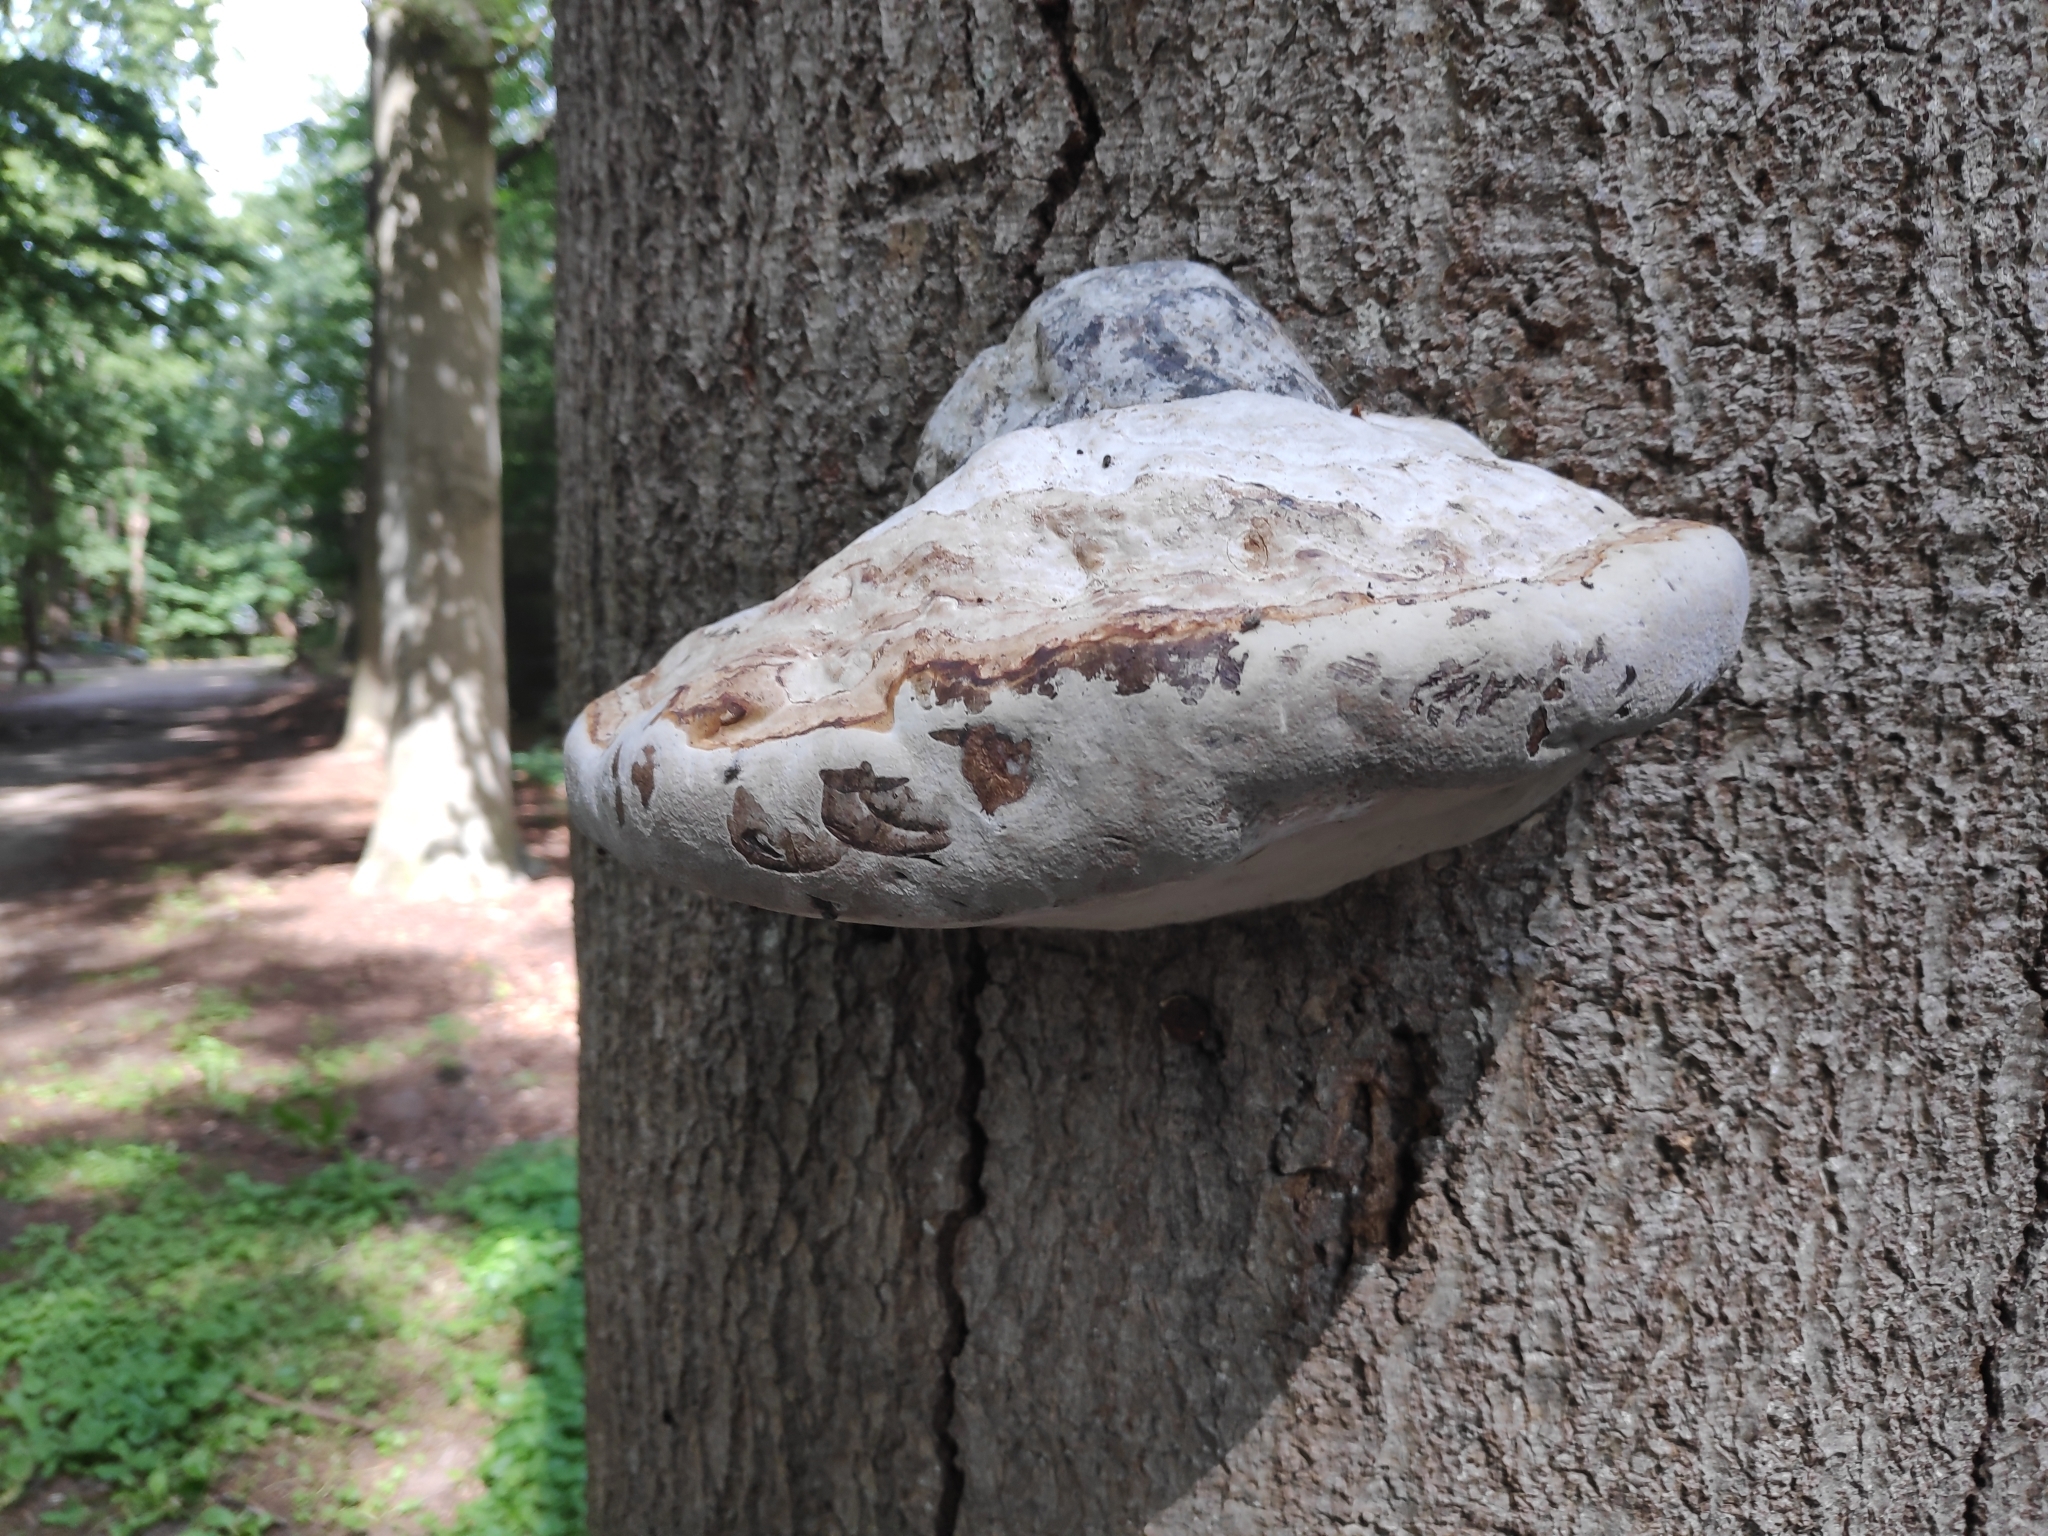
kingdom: Fungi
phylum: Basidiomycota
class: Agaricomycetes
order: Polyporales
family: Polyporaceae
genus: Fomes
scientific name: Fomes fomentarius
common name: Hoof fungus
